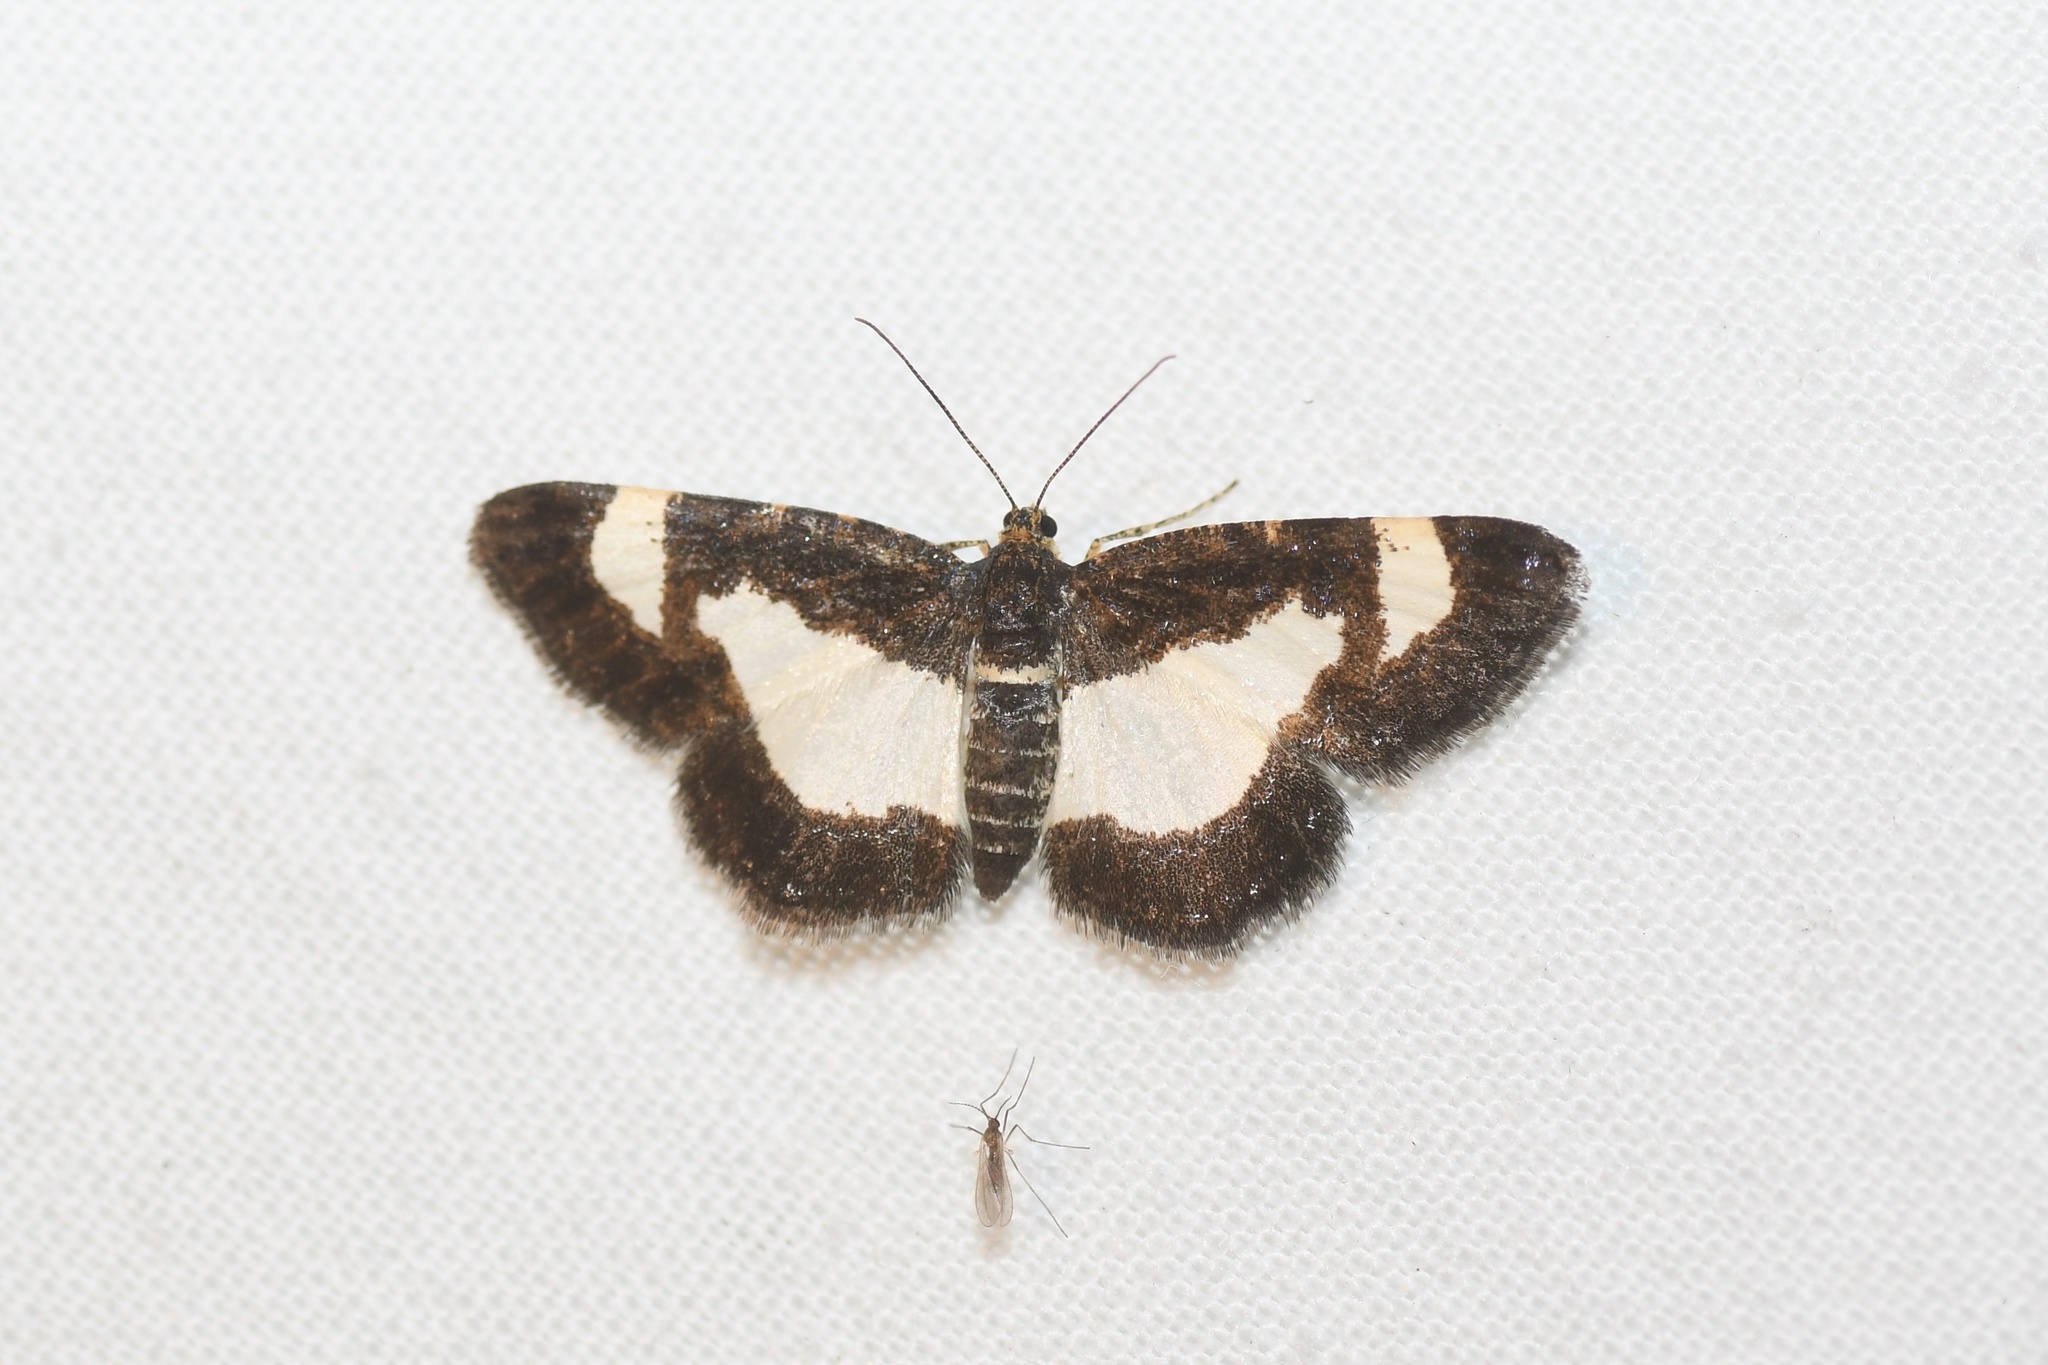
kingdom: Animalia
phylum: Arthropoda
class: Insecta
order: Lepidoptera
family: Geometridae
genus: Heliomata
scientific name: Heliomata cycladata
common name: Common spring moth
